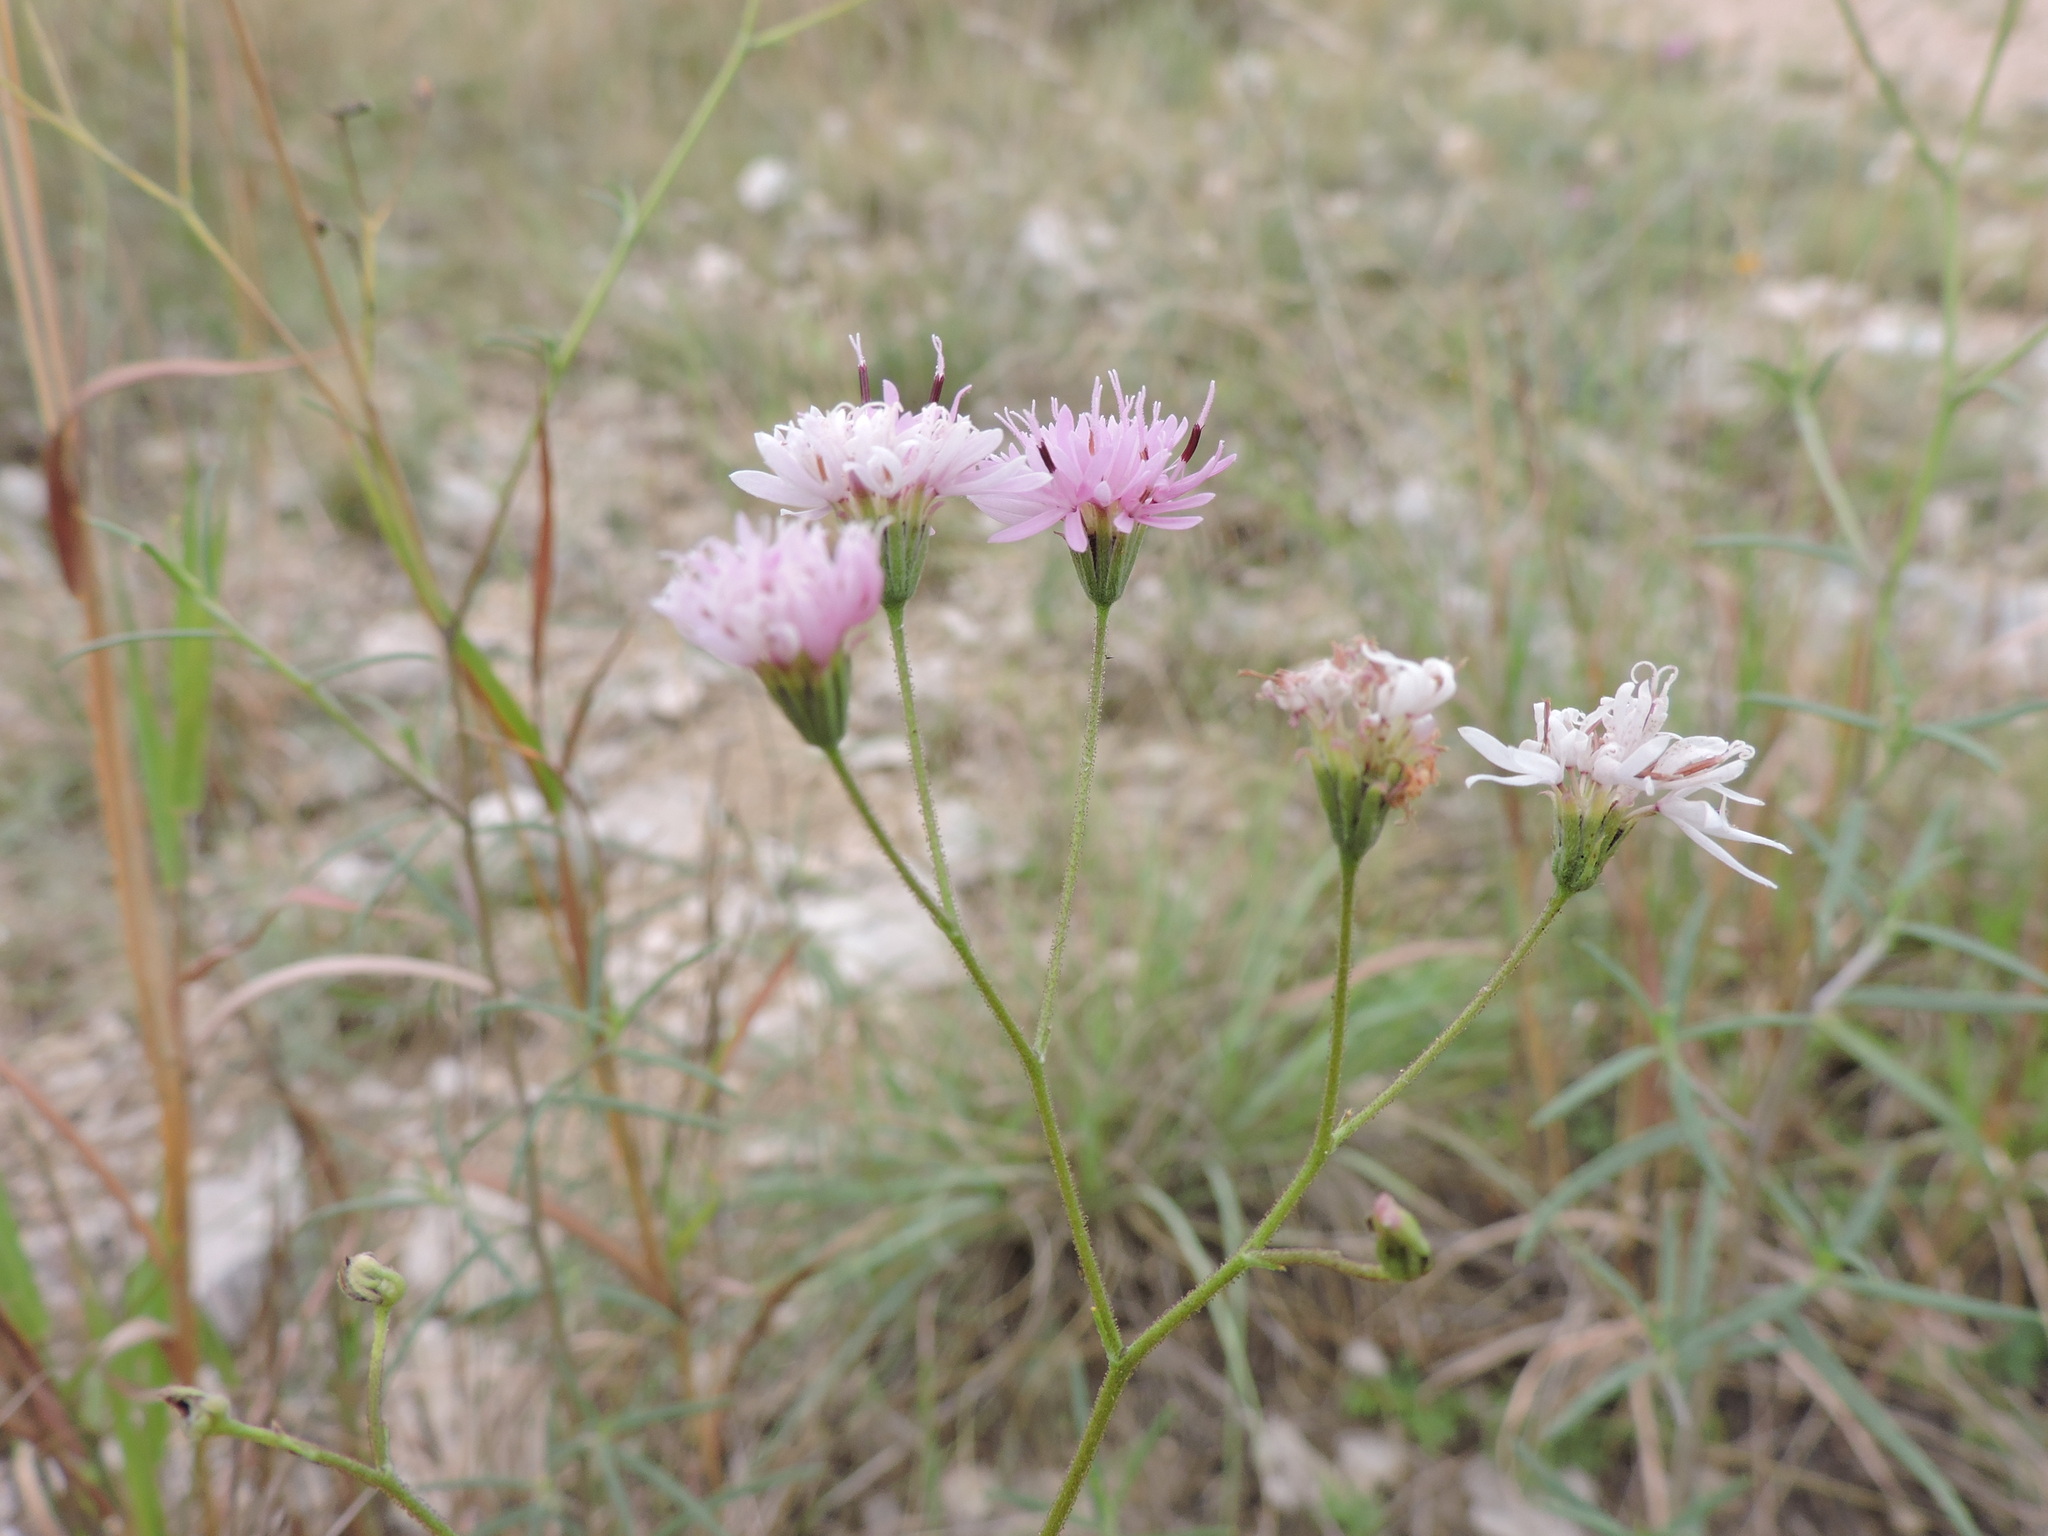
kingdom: Plantae
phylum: Tracheophyta
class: Magnoliopsida
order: Asterales
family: Asteraceae
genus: Palafoxia
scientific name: Palafoxia callosa
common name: Small palafox
